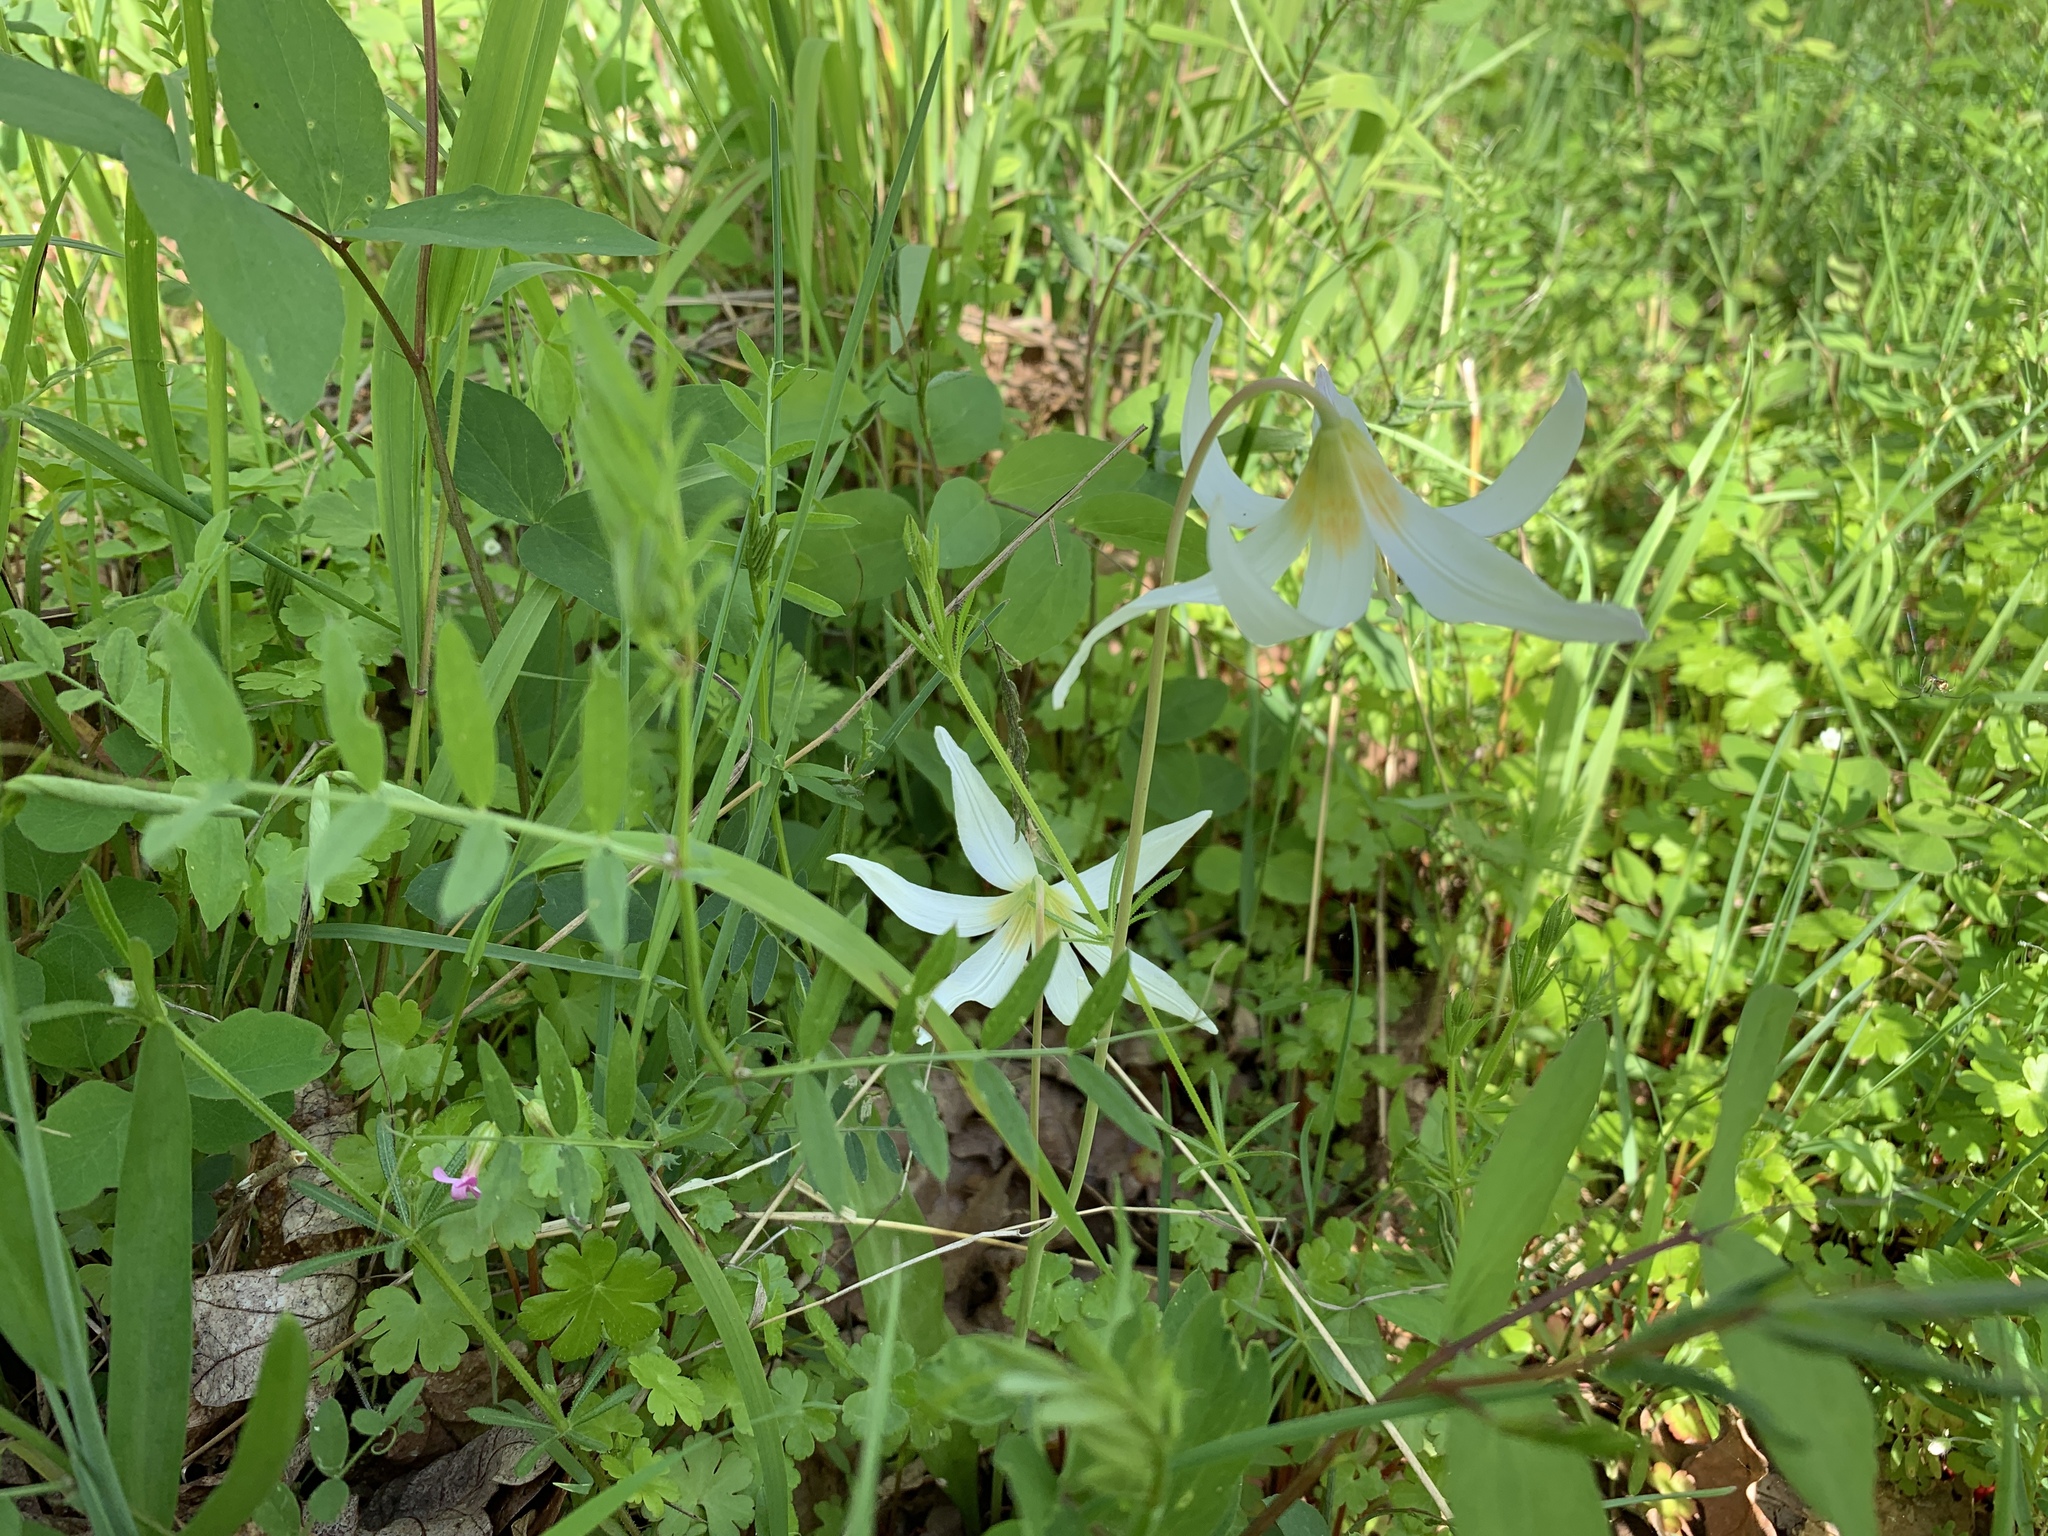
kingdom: Plantae
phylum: Tracheophyta
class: Liliopsida
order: Liliales
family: Liliaceae
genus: Erythronium
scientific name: Erythronium oregonum
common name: Giant adder's-tongue
